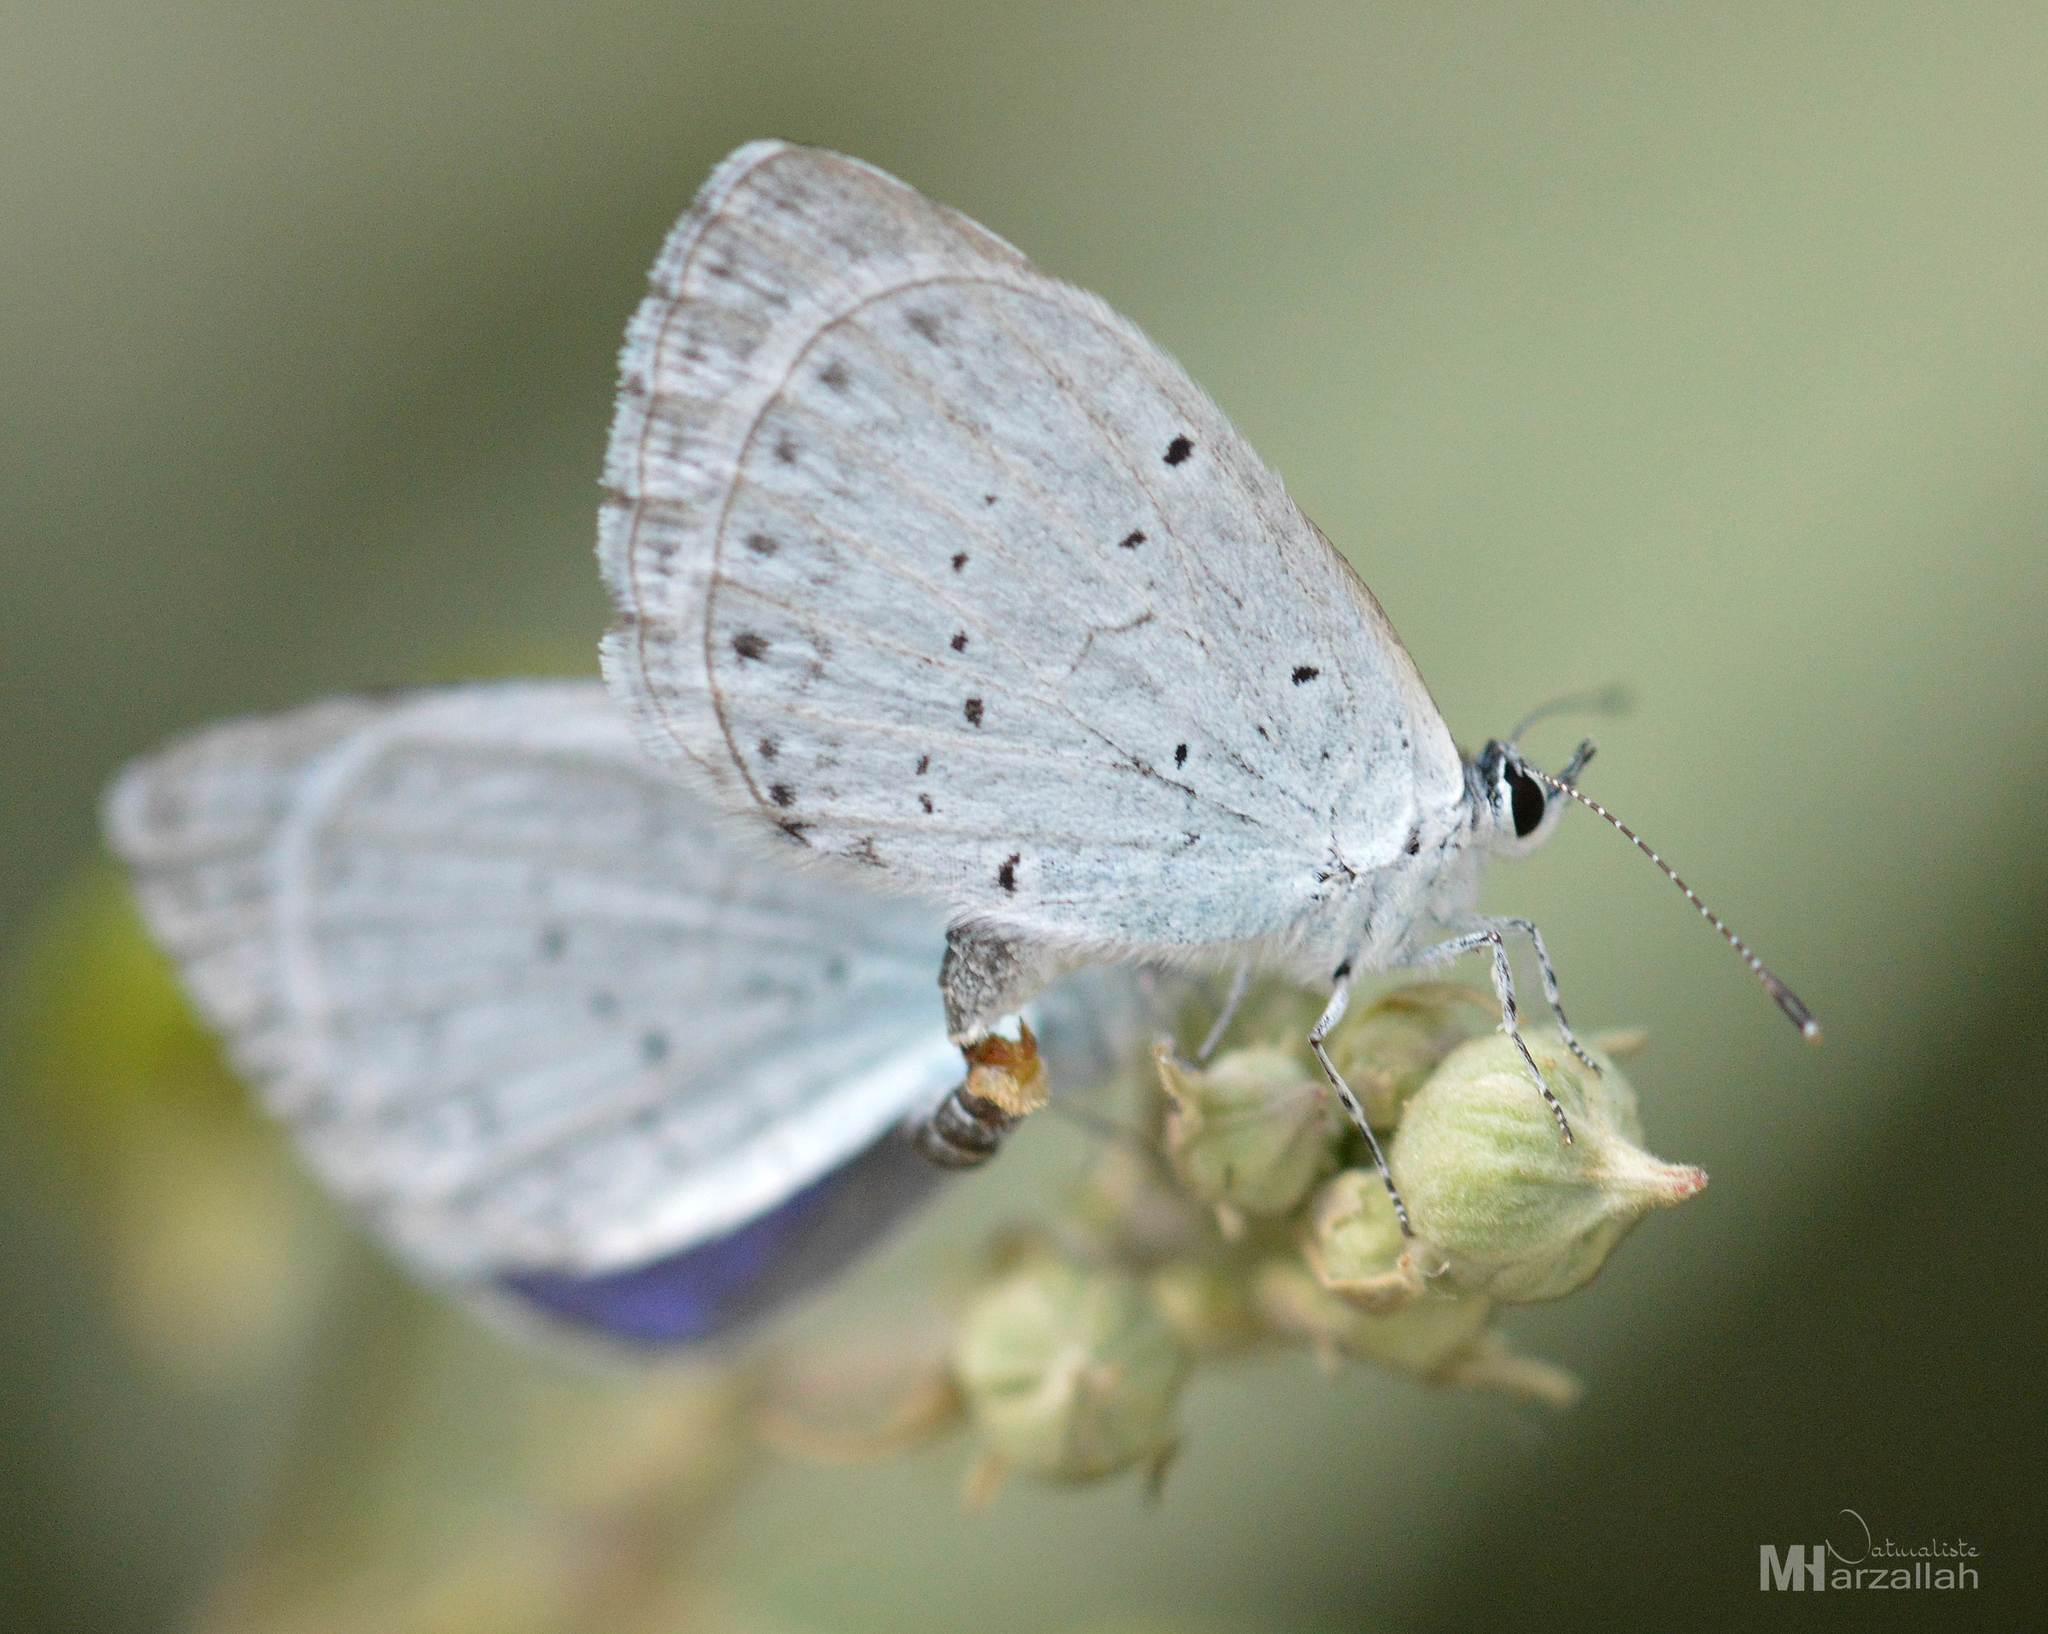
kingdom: Animalia
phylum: Arthropoda
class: Insecta
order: Lepidoptera
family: Lycaenidae
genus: Celastrina
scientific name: Celastrina argiolus
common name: Holly blue
